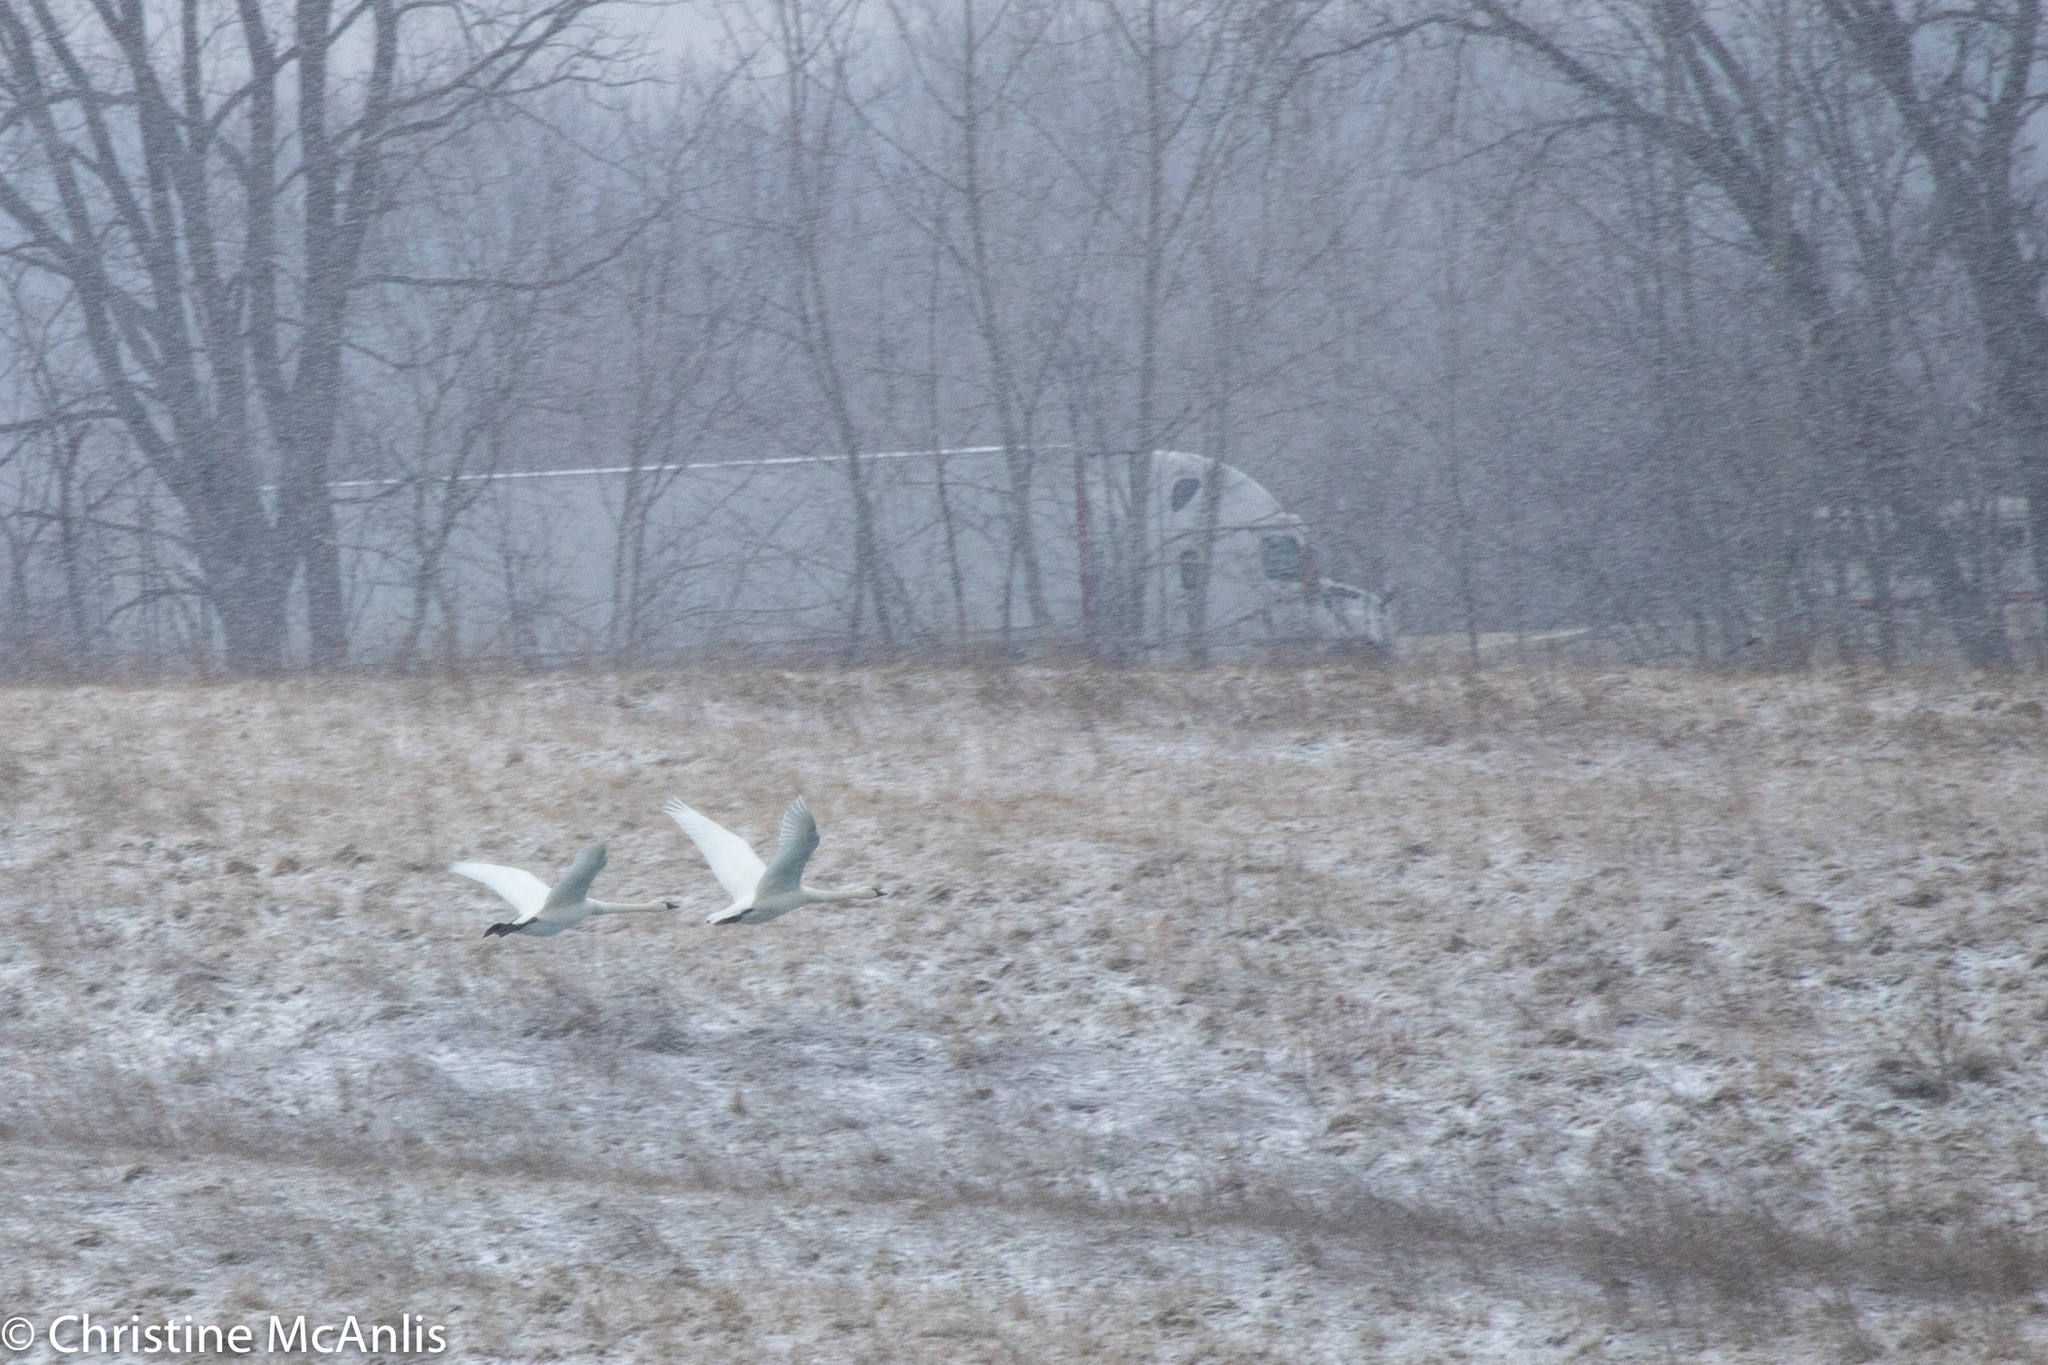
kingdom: Animalia
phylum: Chordata
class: Aves
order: Anseriformes
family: Anatidae
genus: Cygnus
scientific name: Cygnus columbianus
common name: Tundra swan
